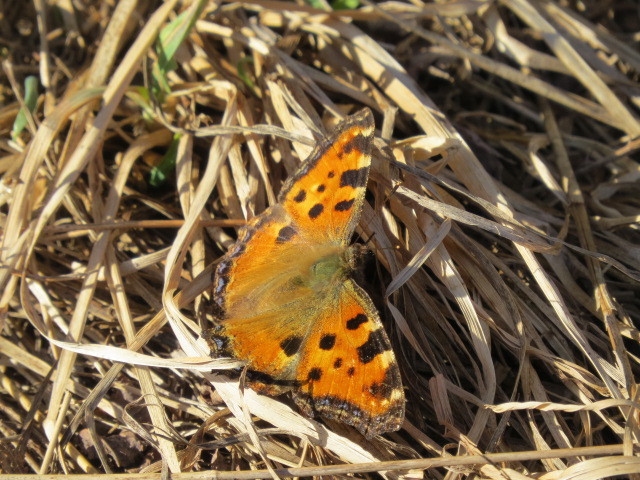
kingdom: Animalia
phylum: Arthropoda
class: Insecta
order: Lepidoptera
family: Nymphalidae
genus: Nymphalis
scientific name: Nymphalis polychloros
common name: Large tortoiseshell
